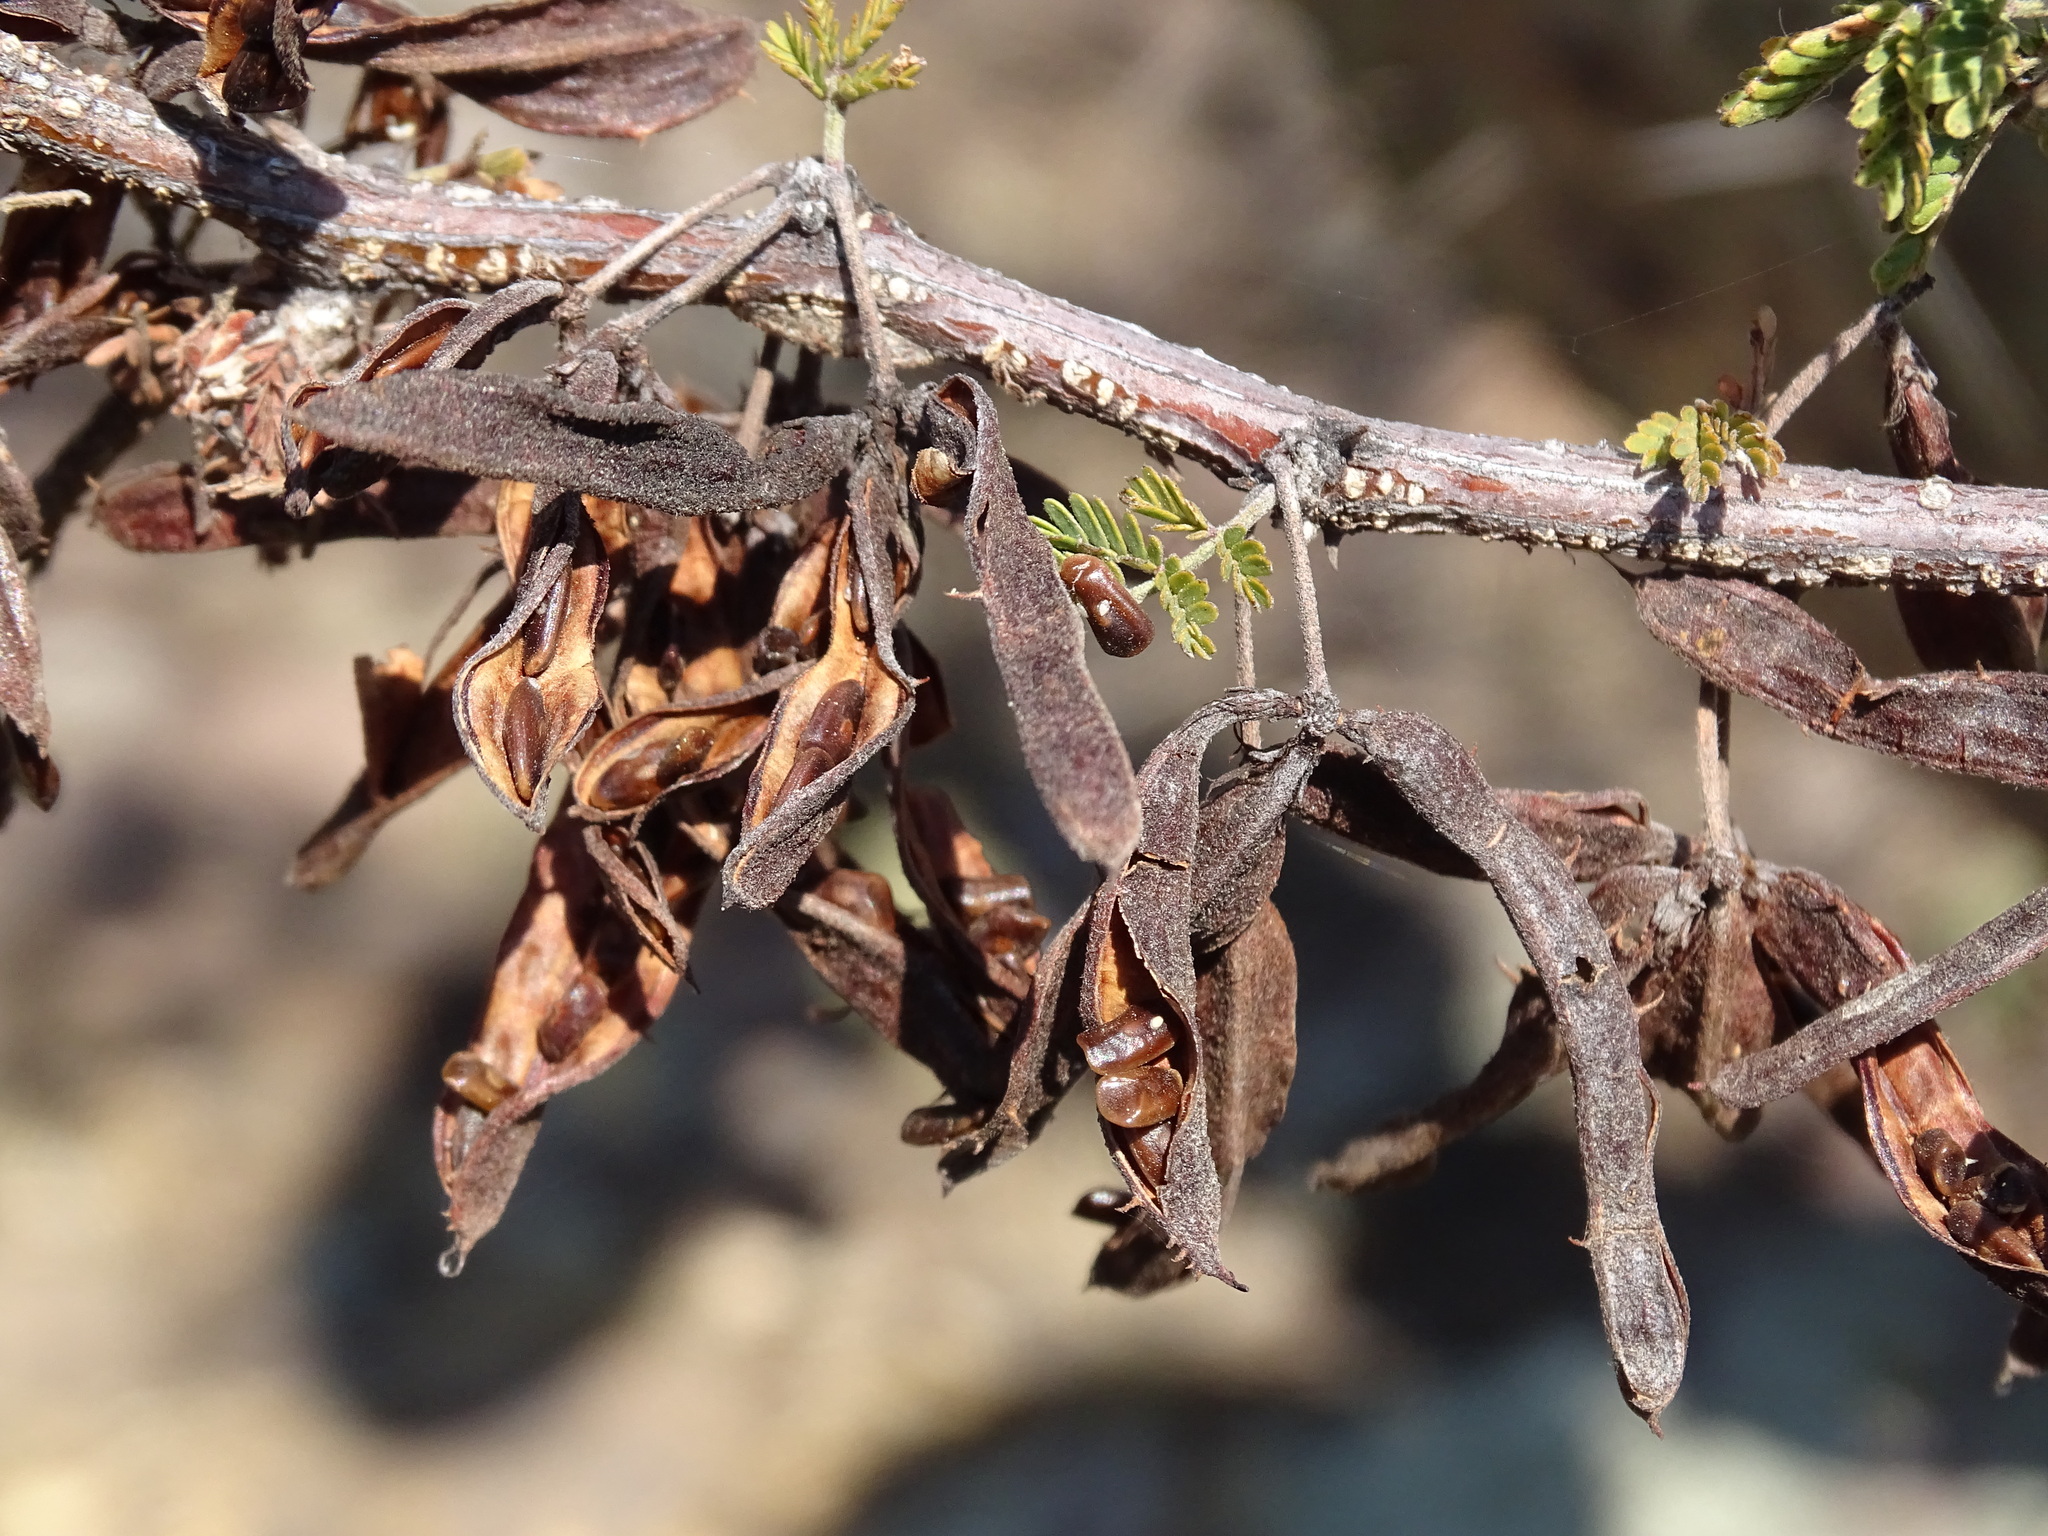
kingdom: Plantae
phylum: Tracheophyta
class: Magnoliopsida
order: Fabales
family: Fabaceae
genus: Mimosa
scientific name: Mimosa biuncifera
